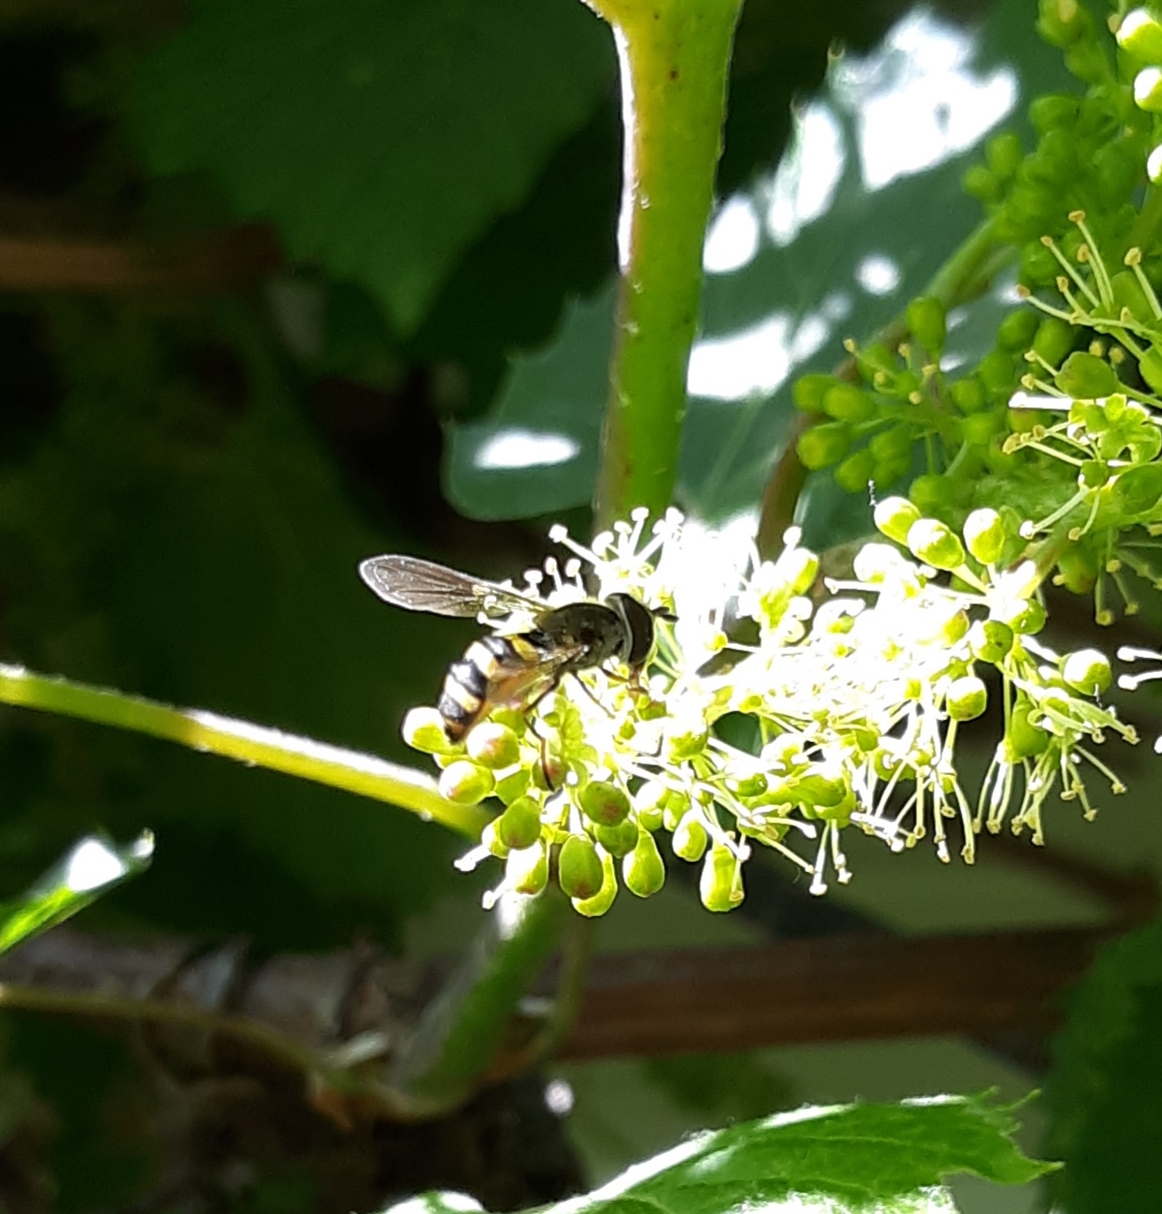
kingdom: Animalia
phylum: Arthropoda
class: Insecta
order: Diptera
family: Syrphidae
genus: Eupeodes
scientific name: Eupeodes
